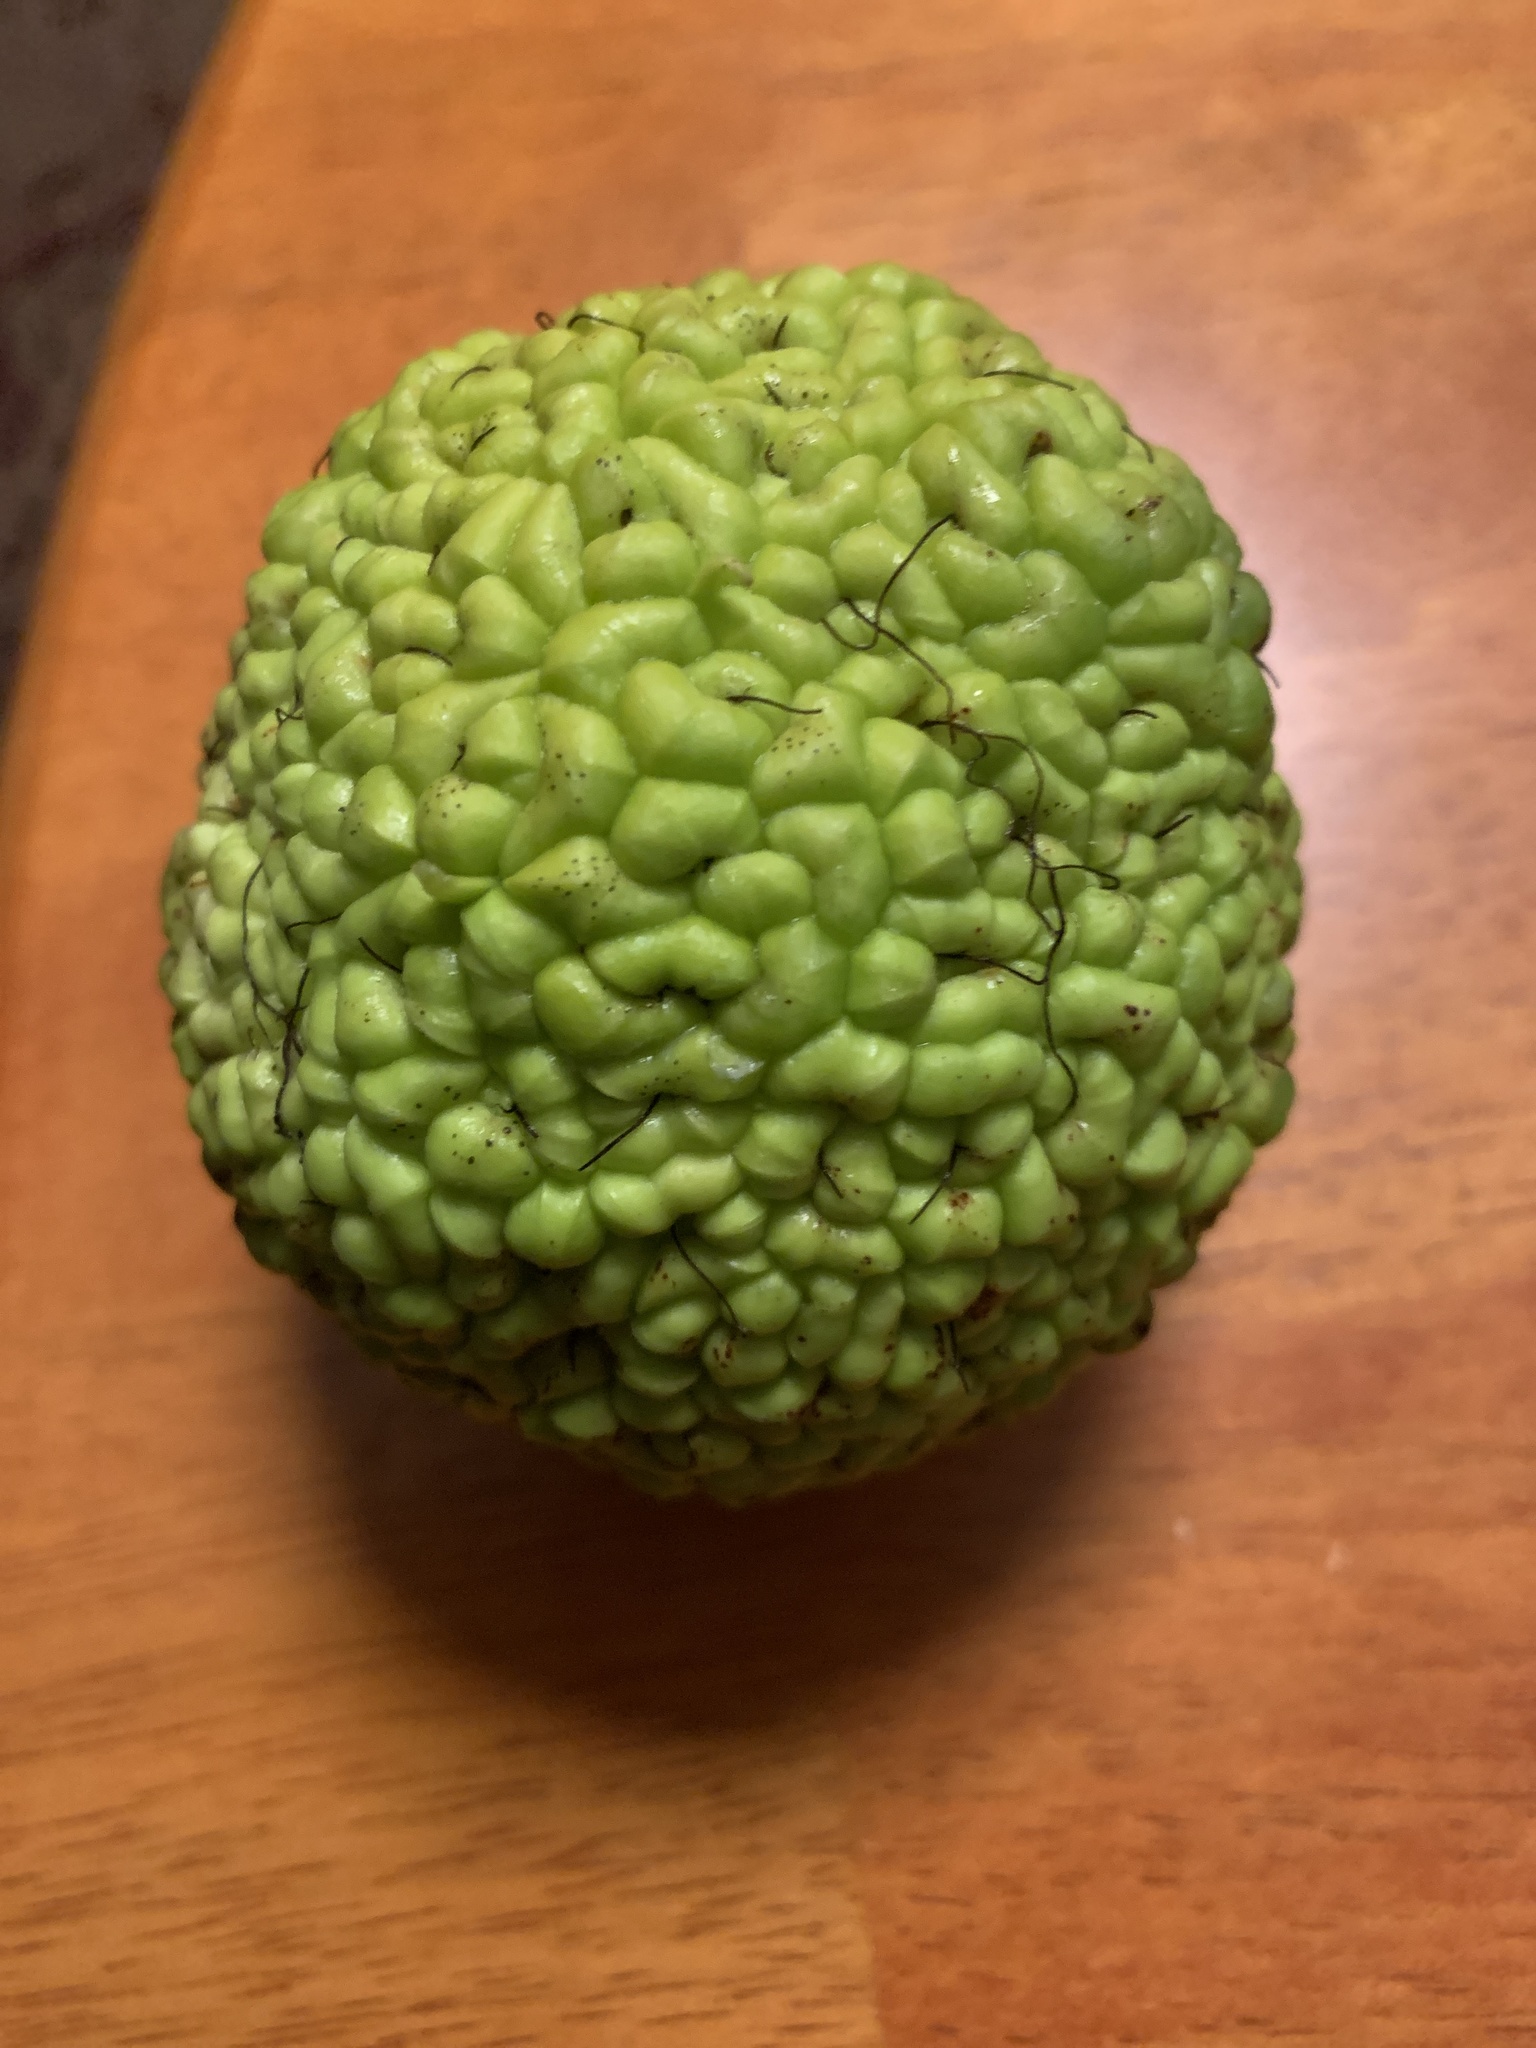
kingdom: Plantae
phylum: Tracheophyta
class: Magnoliopsida
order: Rosales
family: Moraceae
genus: Maclura
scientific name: Maclura pomifera
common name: Osage-orange
